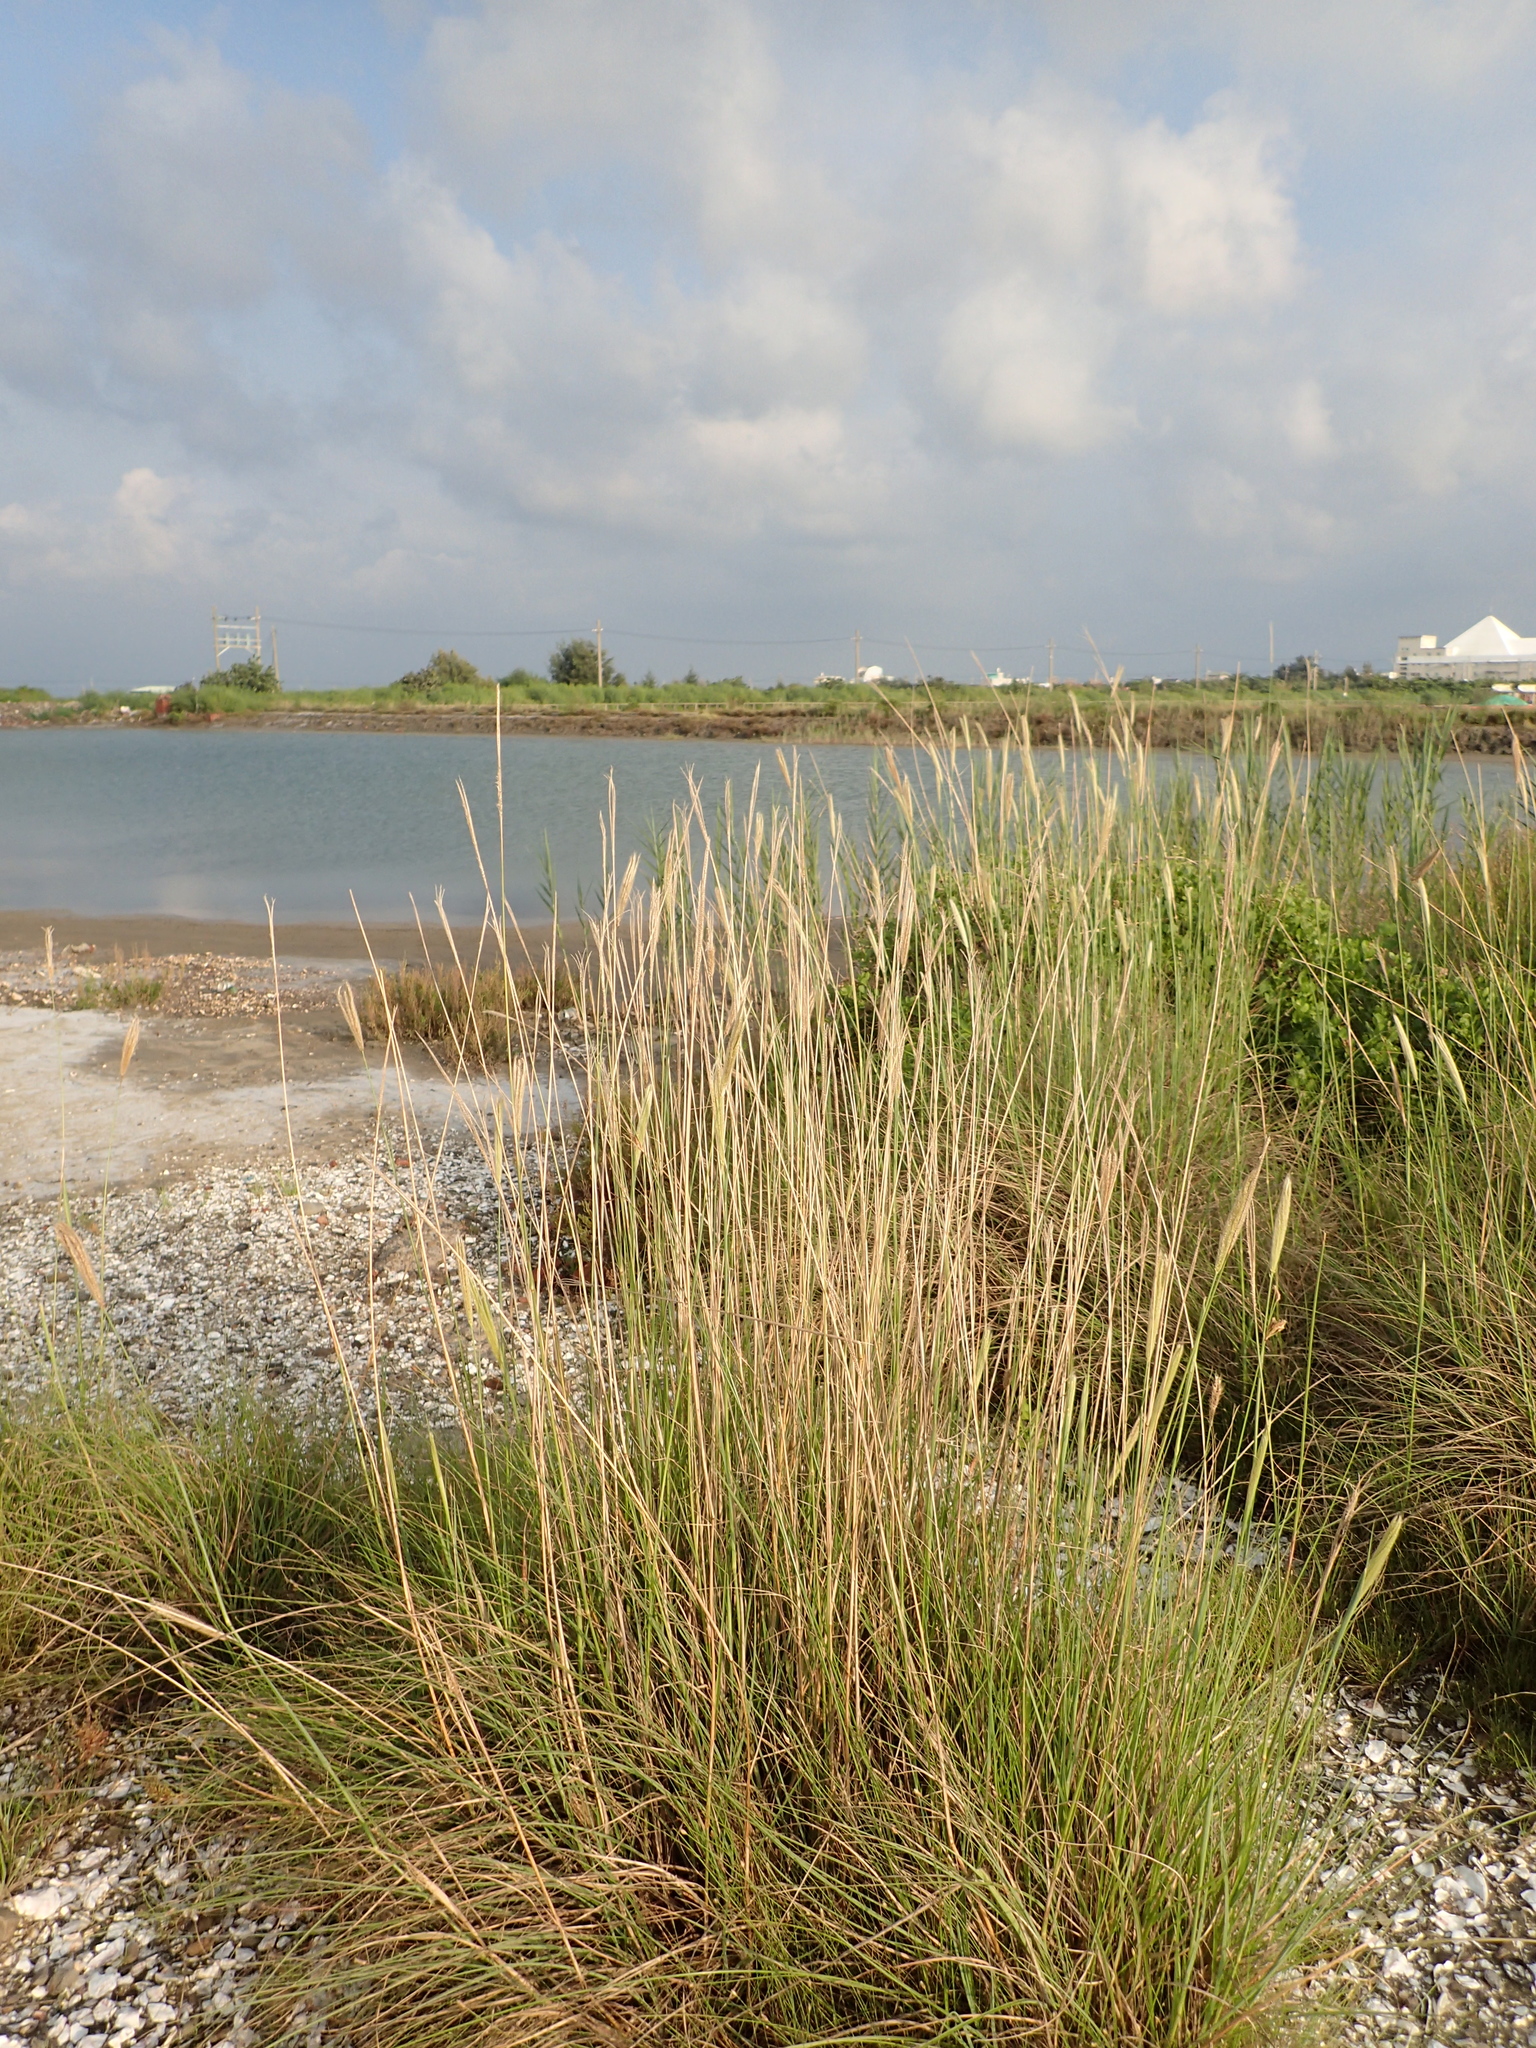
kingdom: Plantae
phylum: Tracheophyta
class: Liliopsida
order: Poales
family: Poaceae
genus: Chloris
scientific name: Chloris formosana
